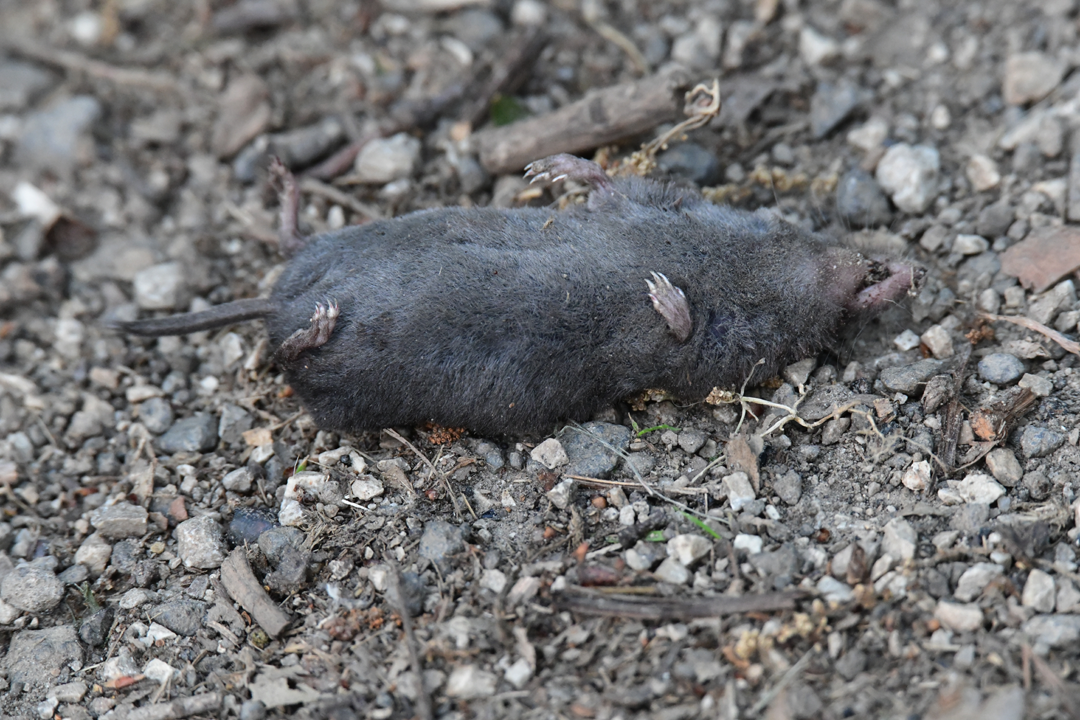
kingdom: Animalia
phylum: Chordata
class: Mammalia
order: Soricomorpha
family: Soricidae
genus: Blarina
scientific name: Blarina brevicauda
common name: Northern short-tailed shrew
